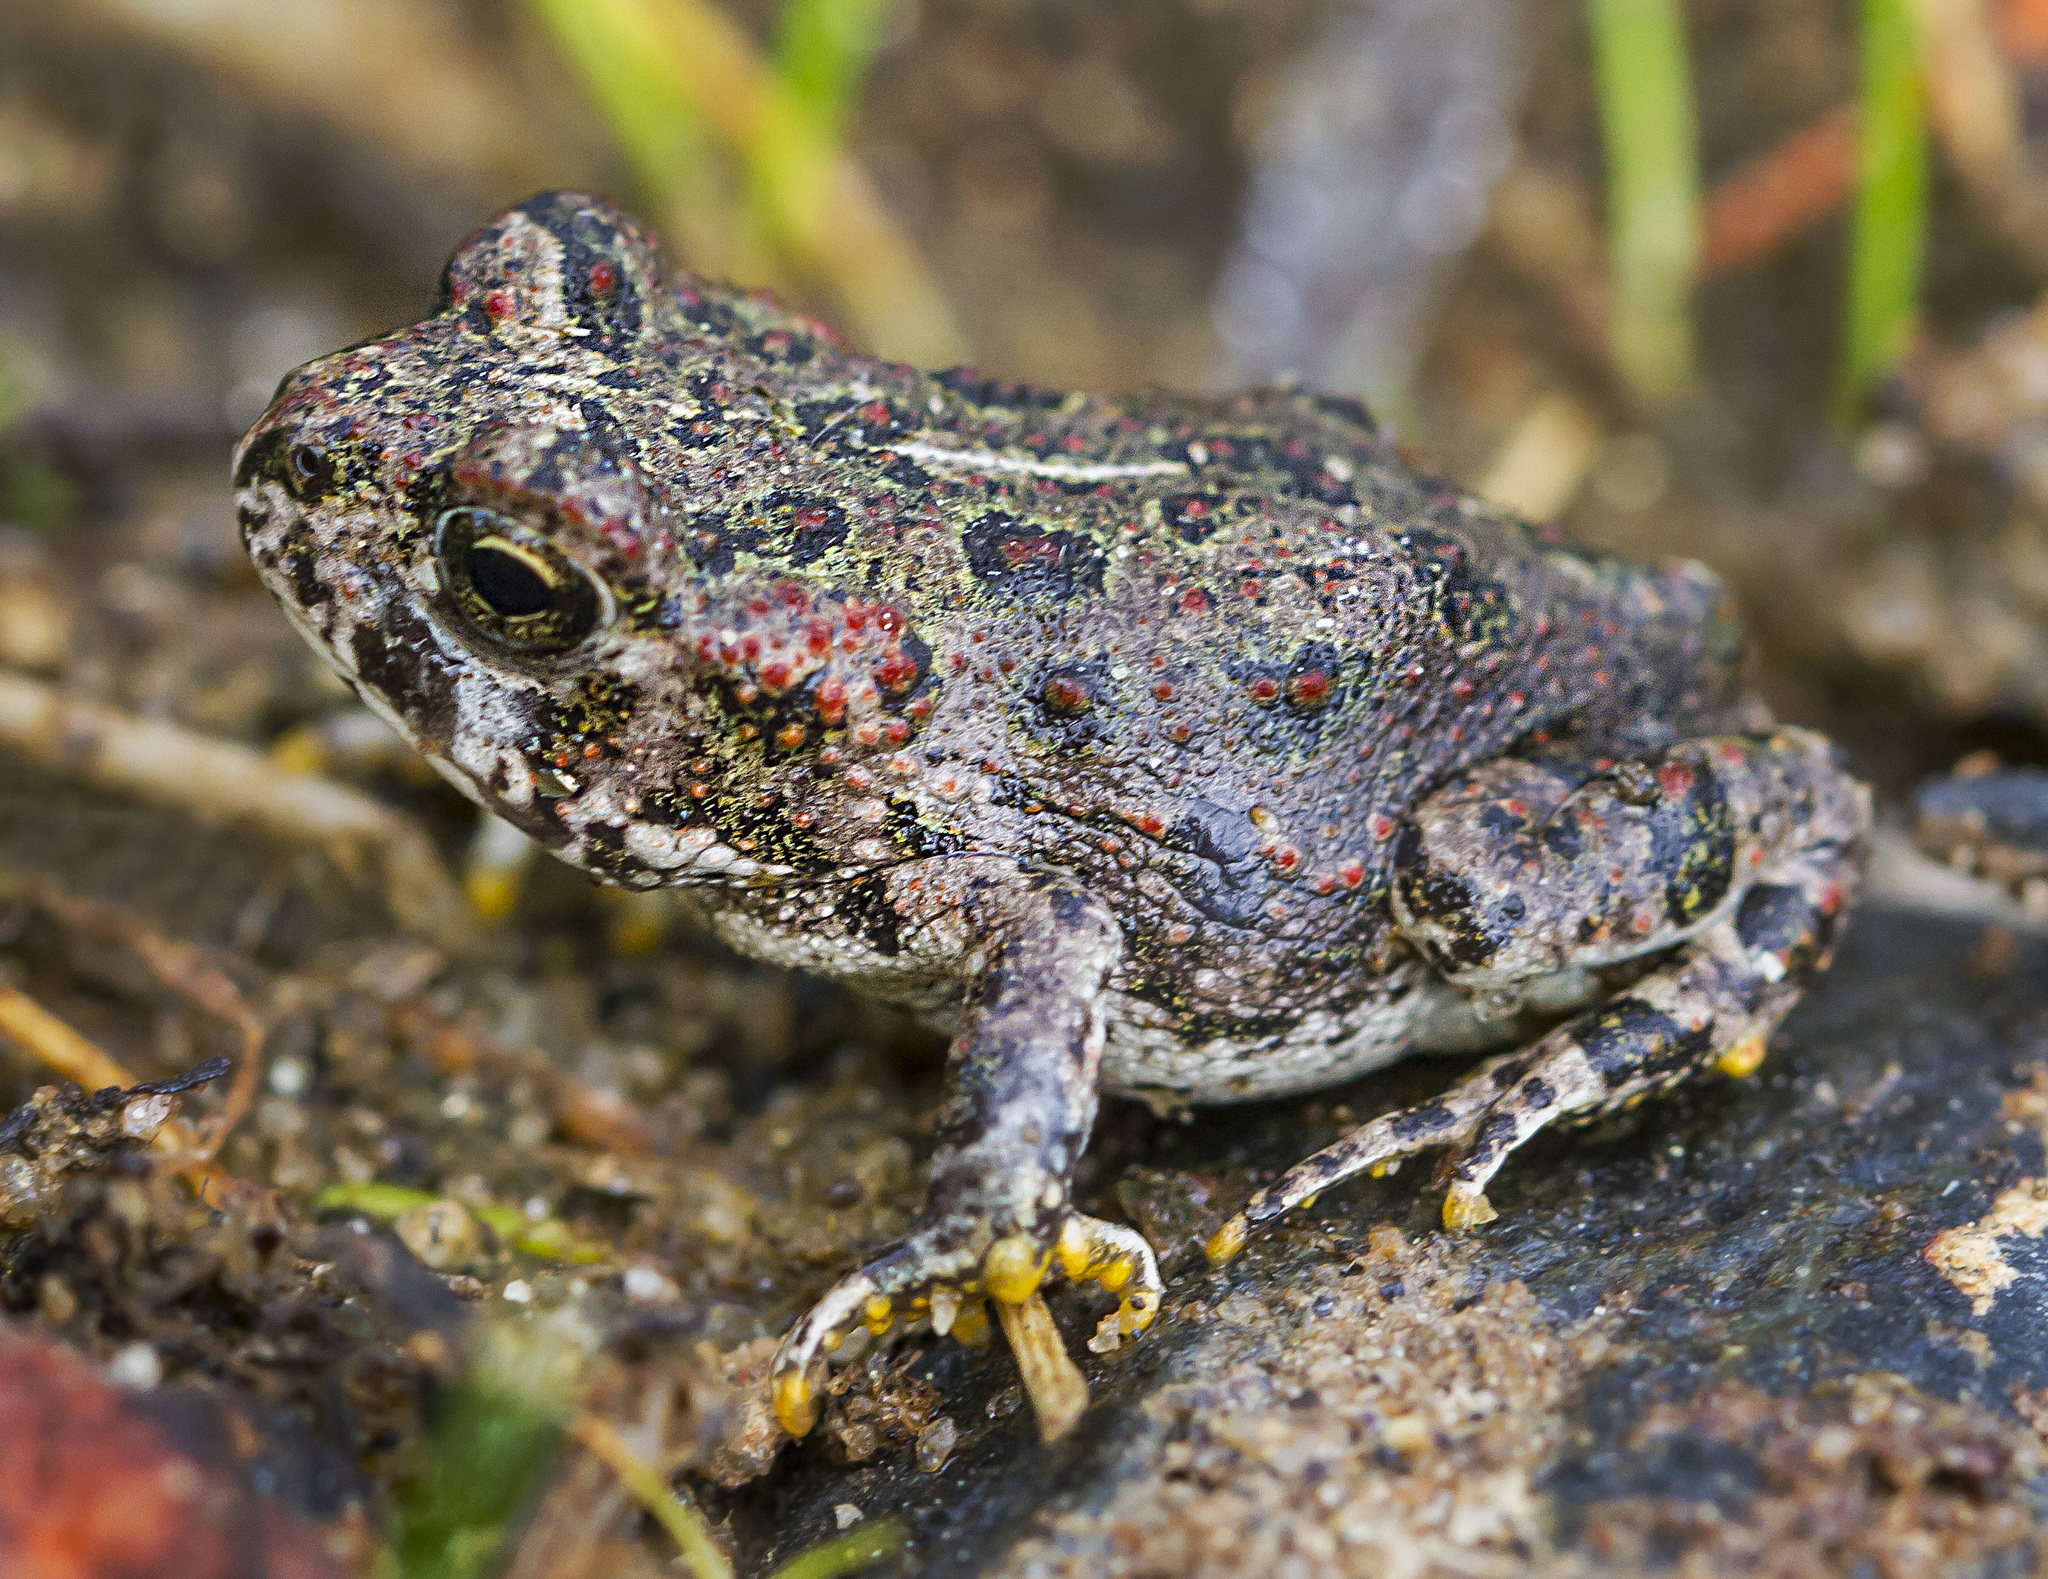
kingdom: Animalia
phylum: Chordata
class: Amphibia
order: Anura
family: Bufonidae
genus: Anaxyrus
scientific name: Anaxyrus boreas
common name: Western toad
